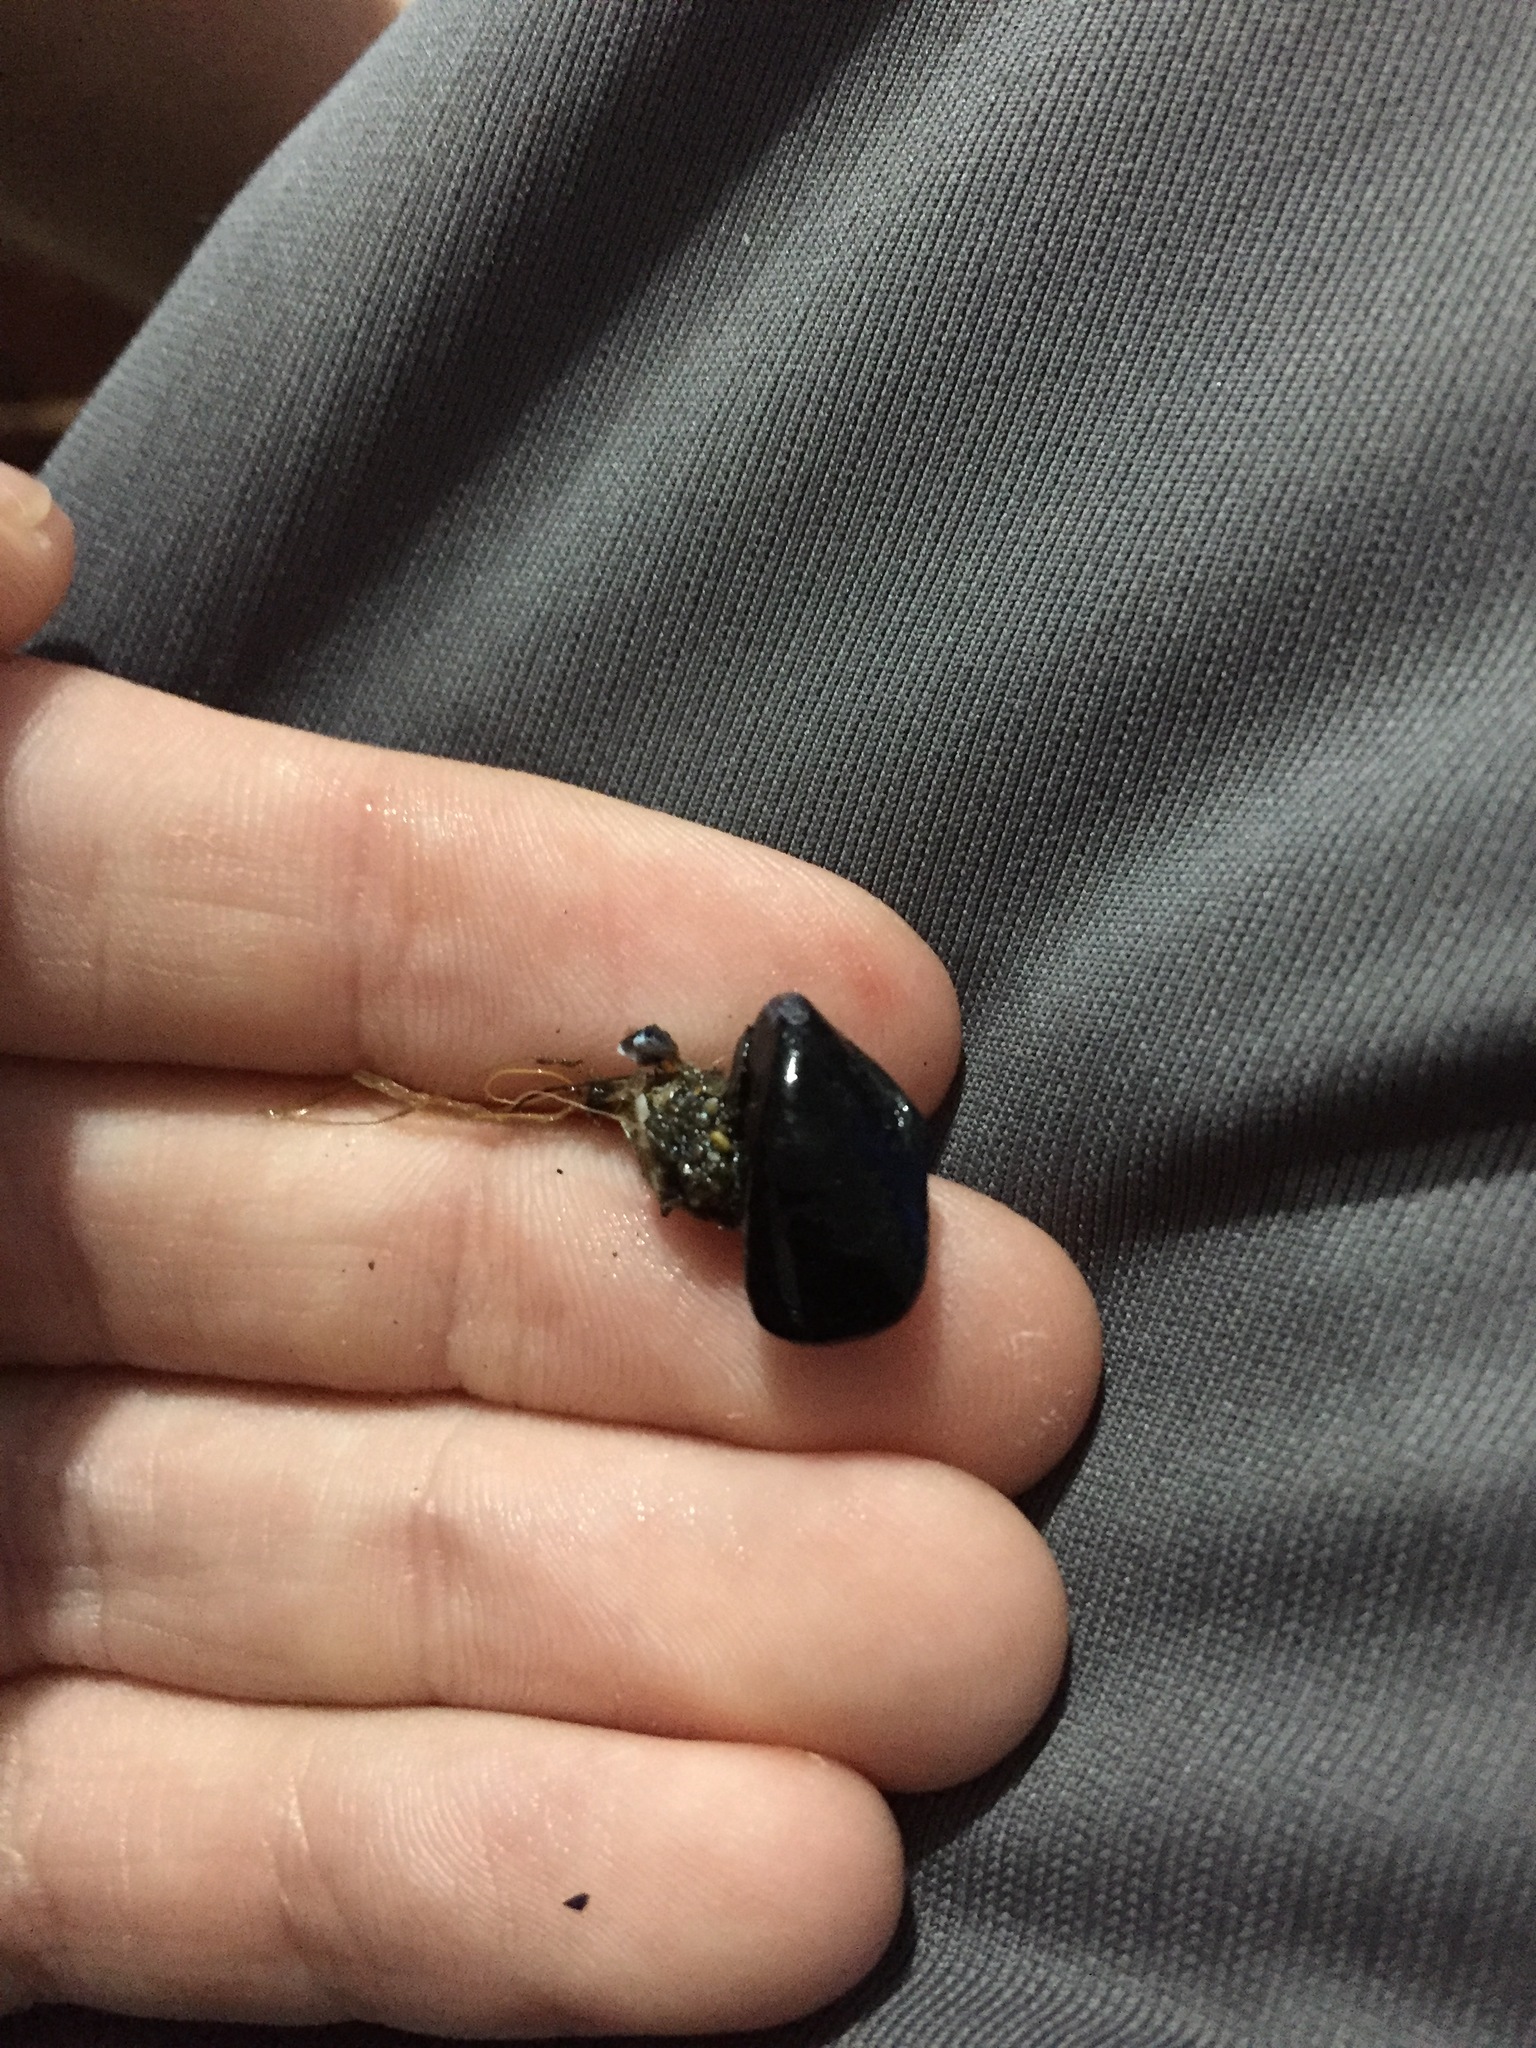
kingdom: Animalia
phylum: Mollusca
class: Bivalvia
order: Mytilida
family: Mytilidae
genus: Xenostrobus
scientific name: Xenostrobus neozelanicus
